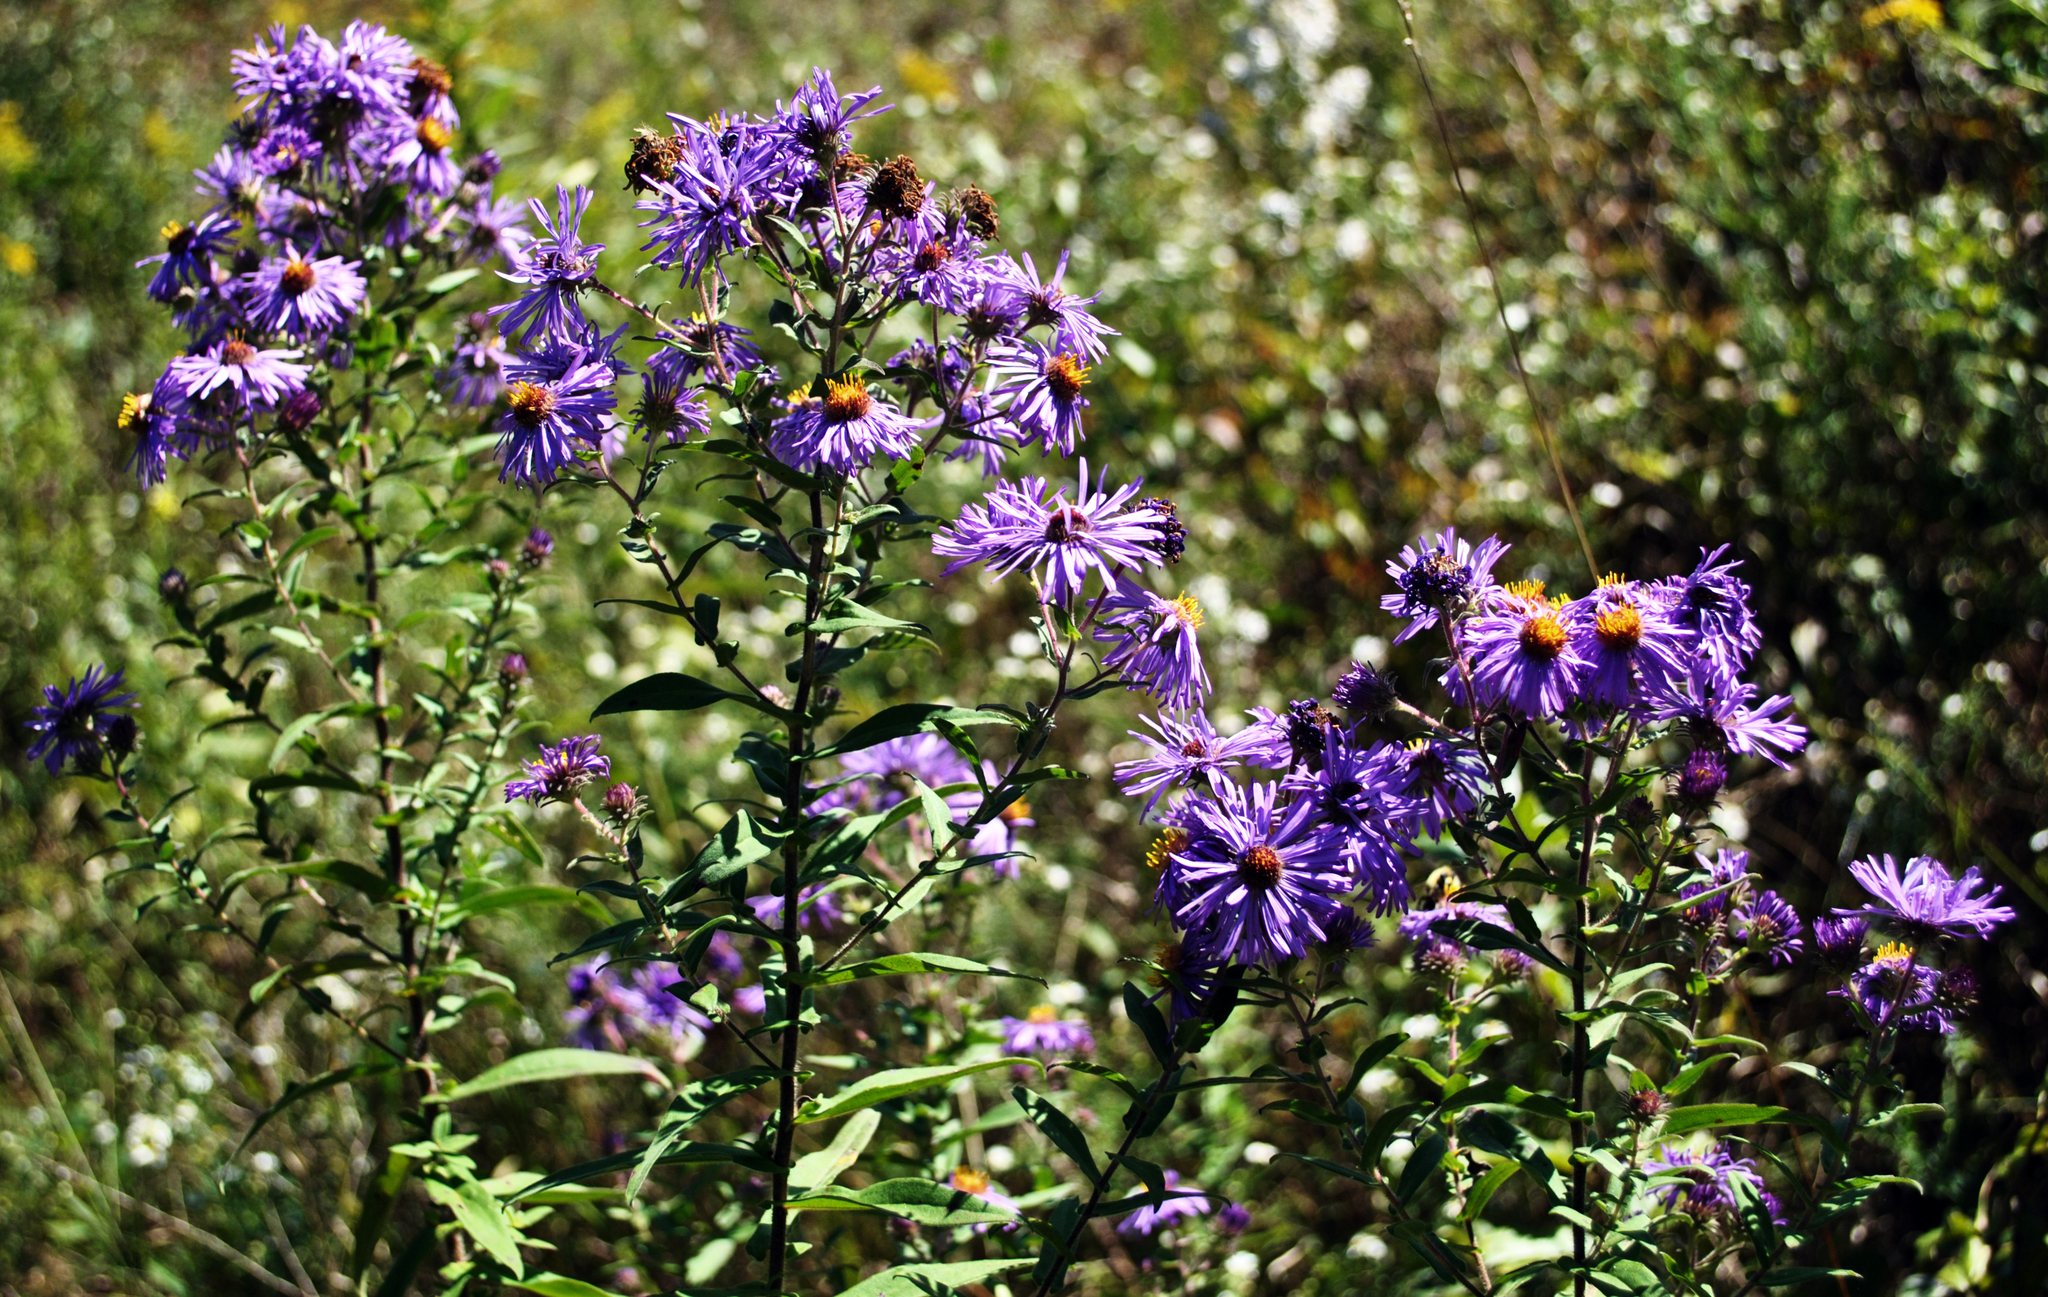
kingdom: Plantae
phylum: Tracheophyta
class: Magnoliopsida
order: Asterales
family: Asteraceae
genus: Symphyotrichum
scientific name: Symphyotrichum novae-angliae
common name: Michaelmas daisy
